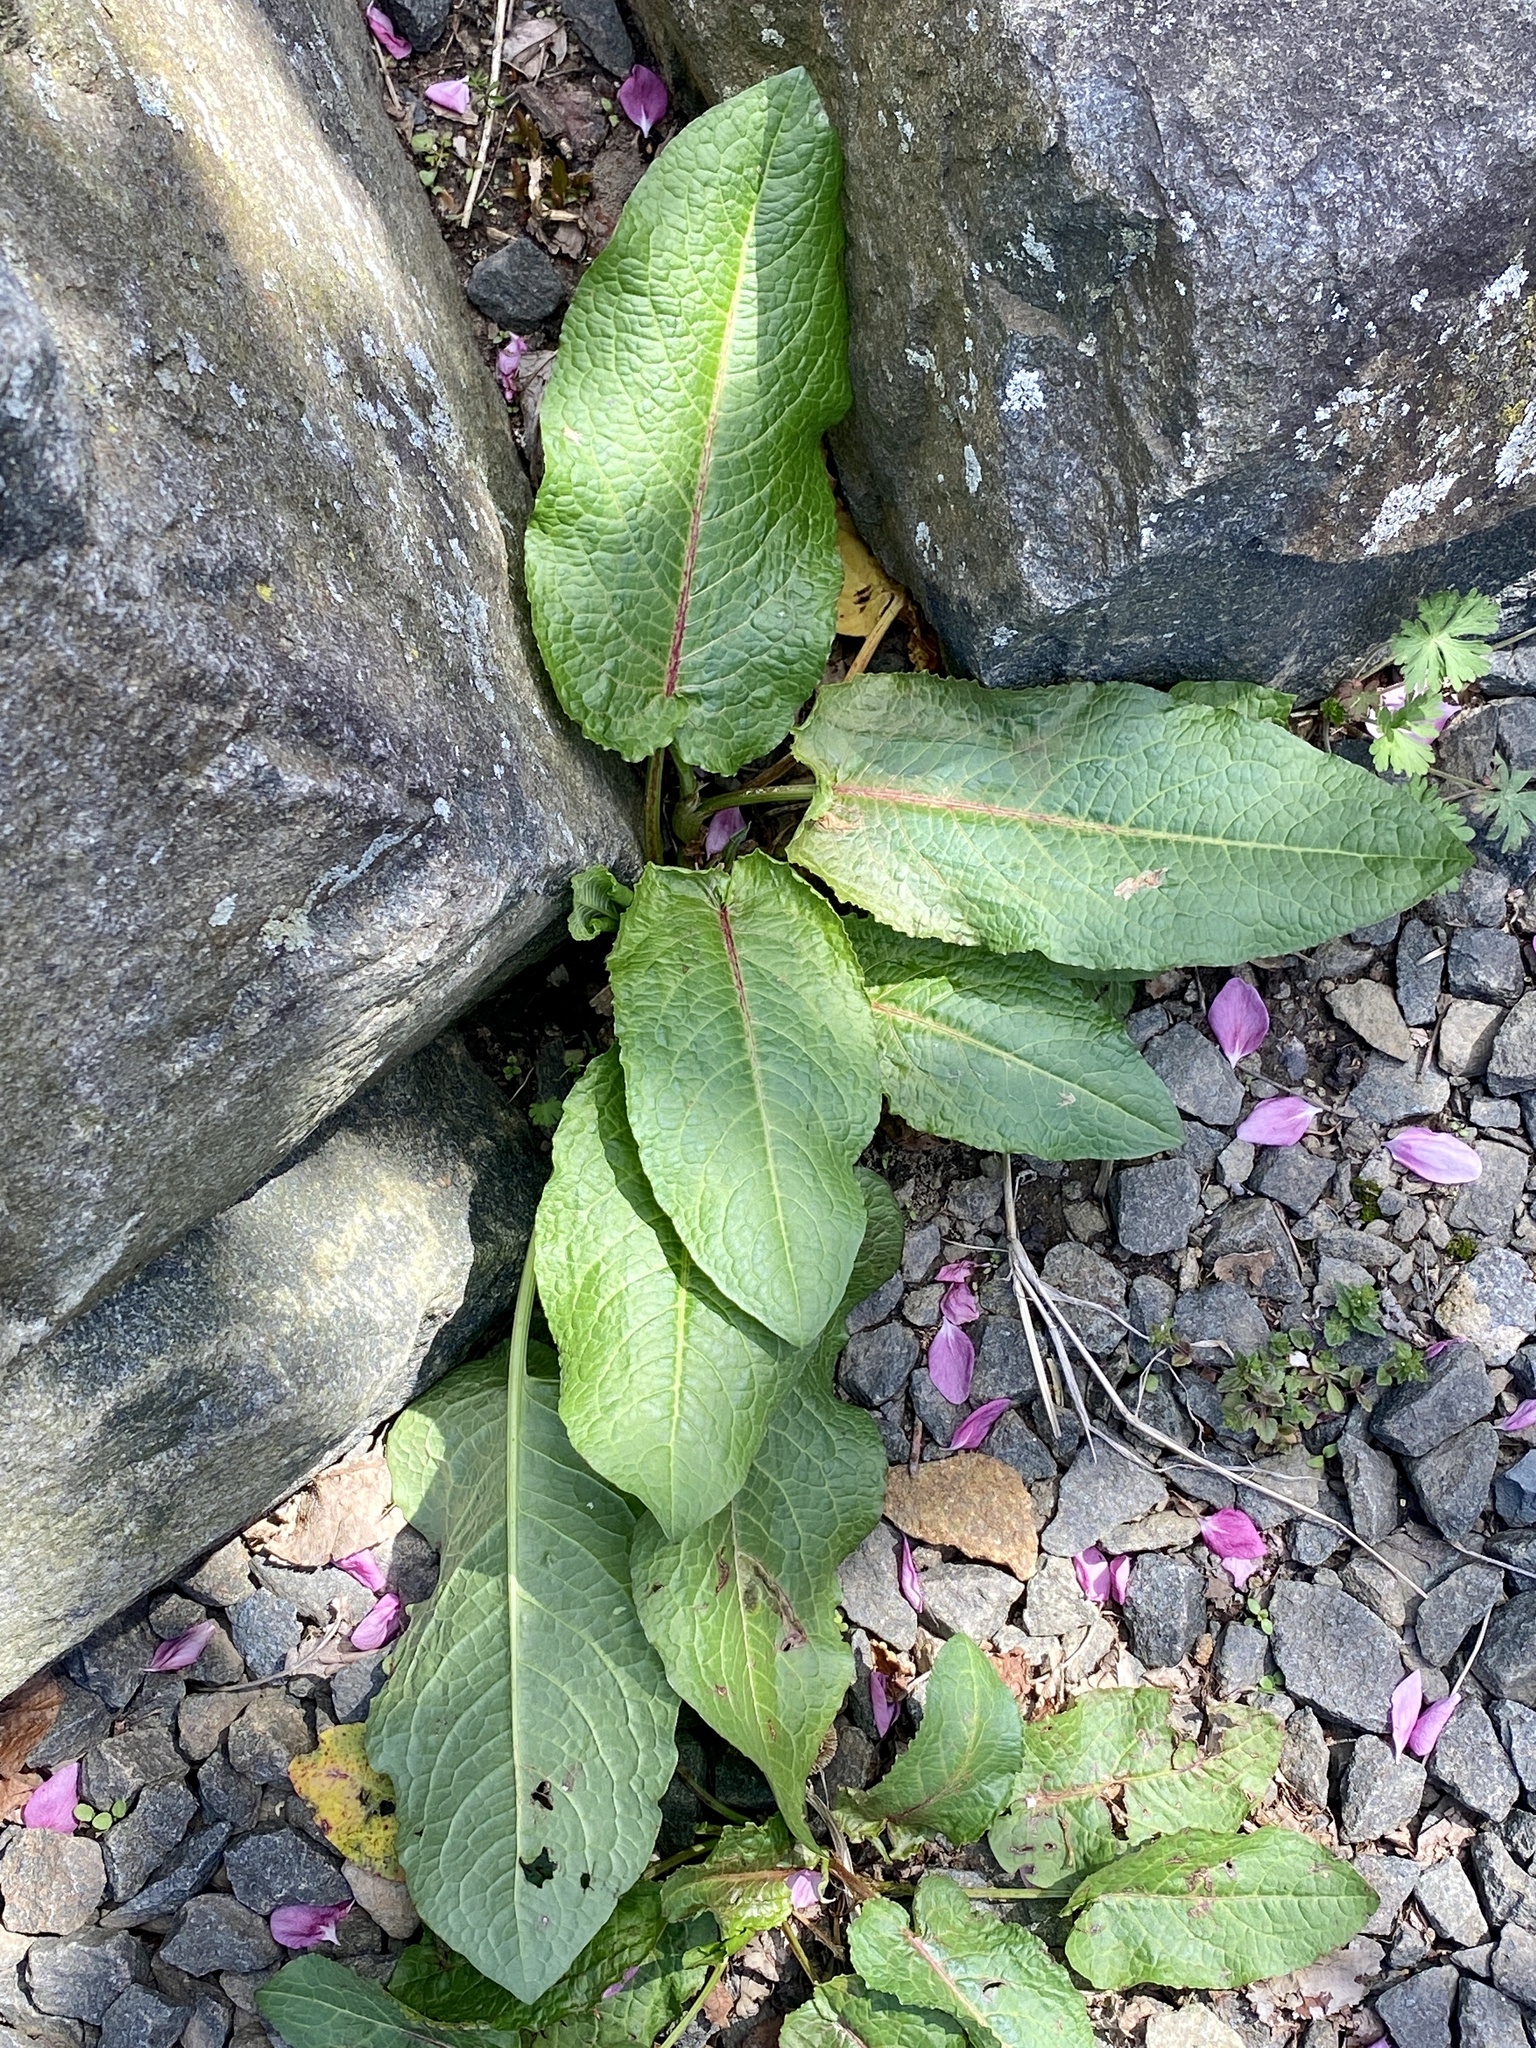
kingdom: Plantae
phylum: Tracheophyta
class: Magnoliopsida
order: Caryophyllales
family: Polygonaceae
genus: Rumex
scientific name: Rumex obtusifolius
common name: Bitter dock
